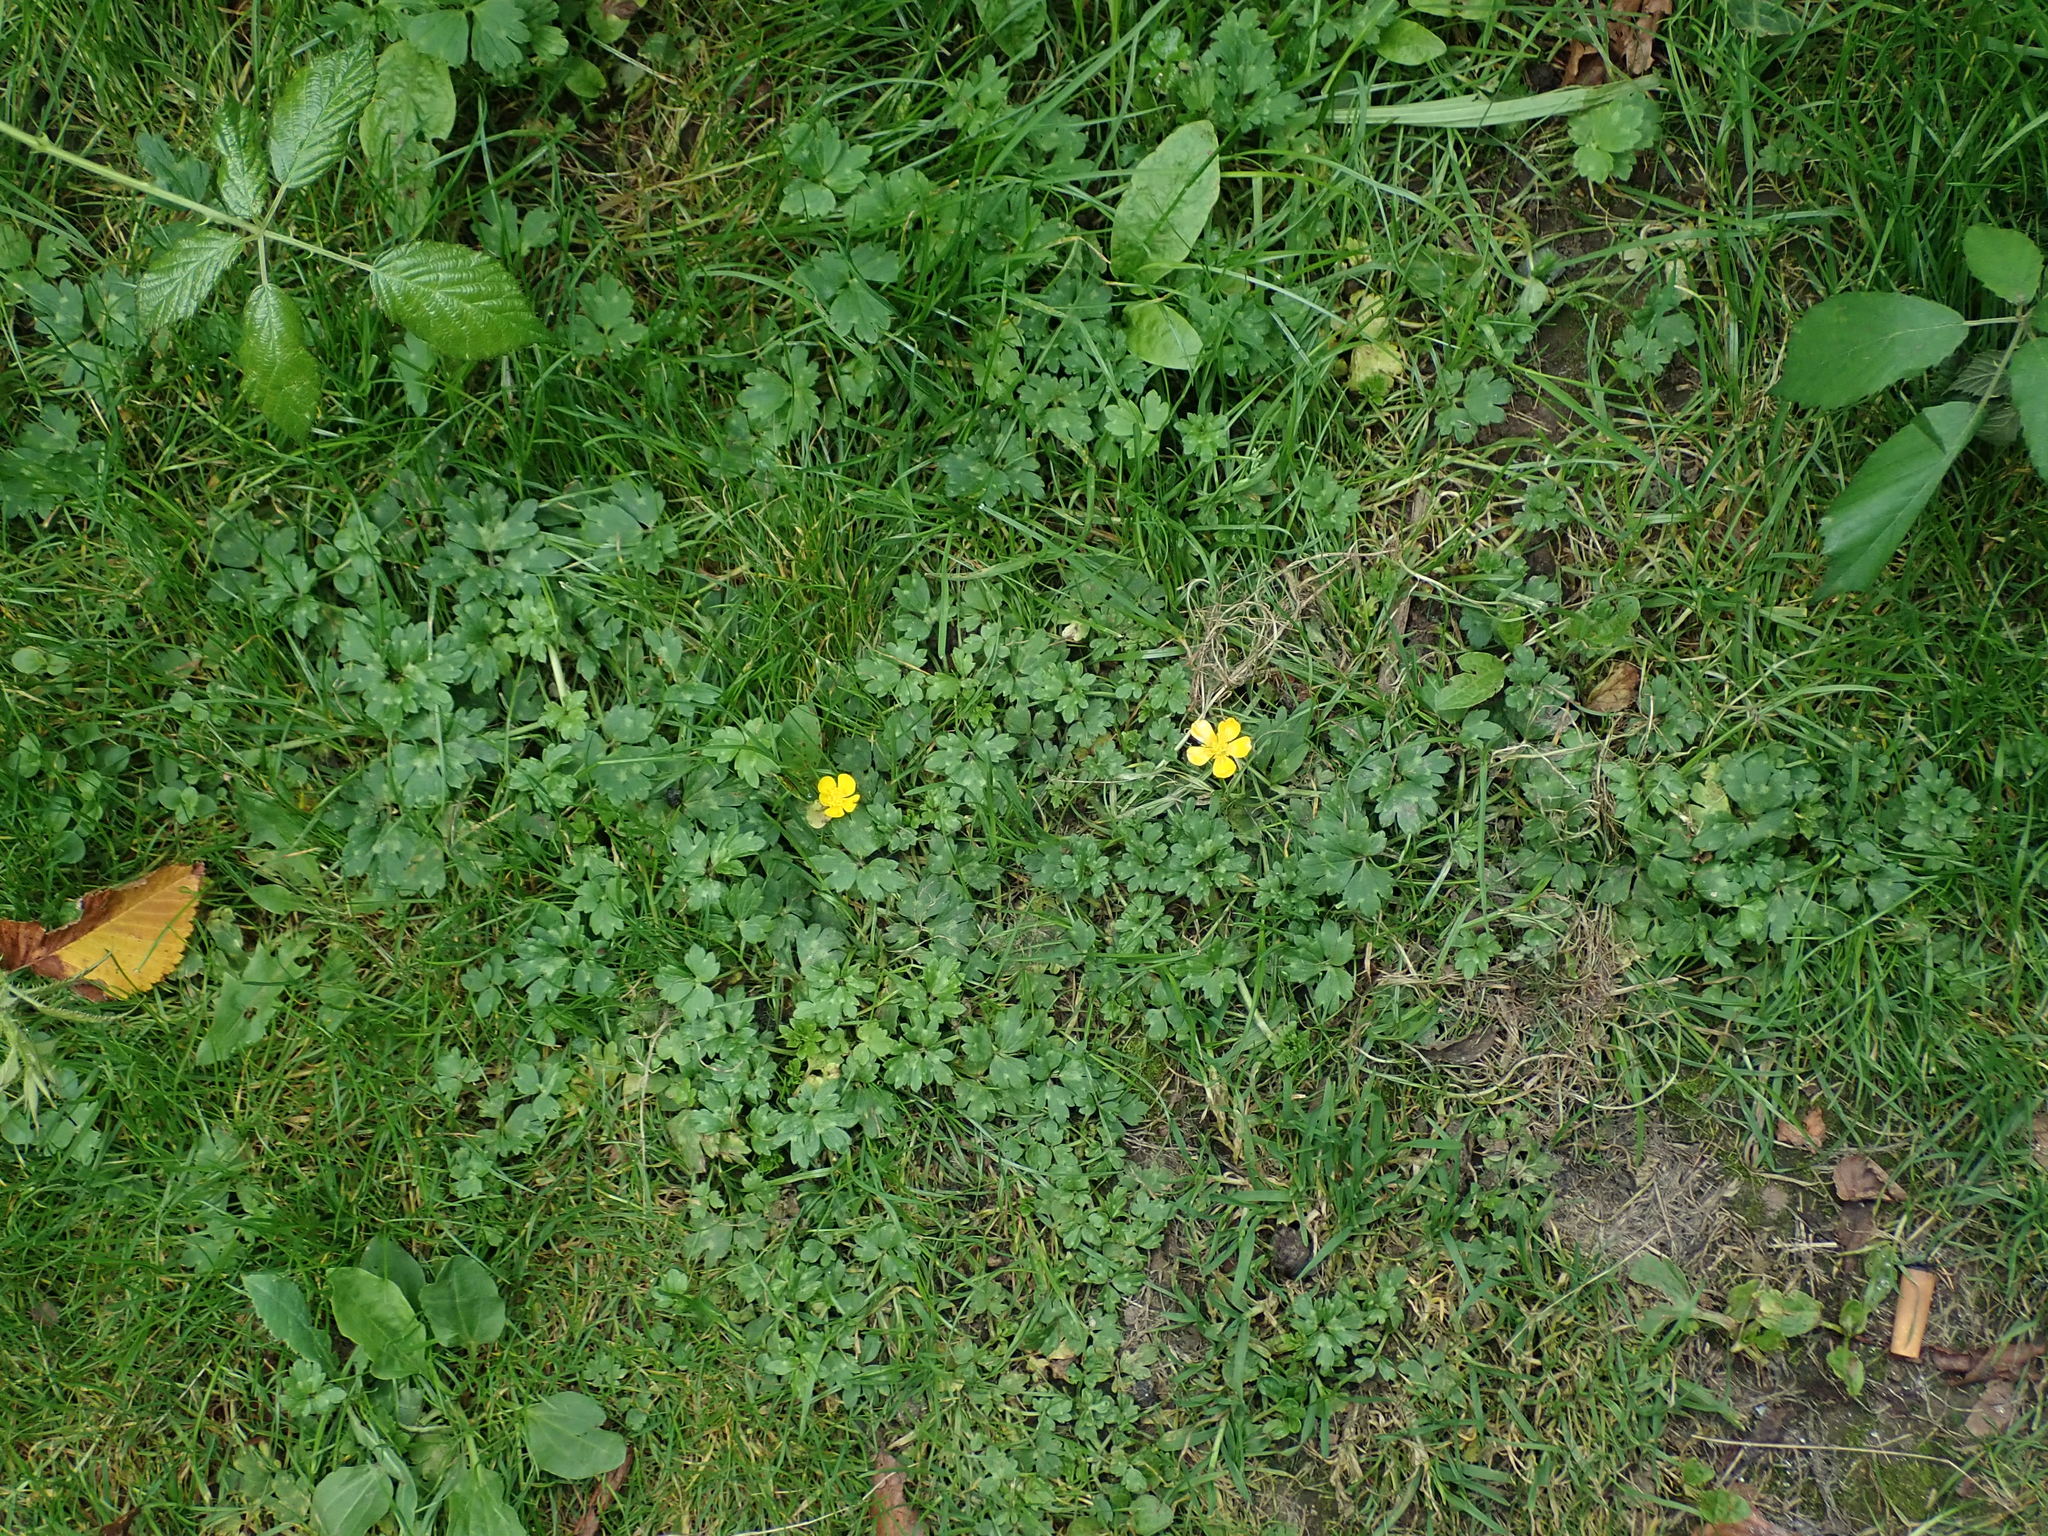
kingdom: Plantae
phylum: Tracheophyta
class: Magnoliopsida
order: Ranunculales
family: Ranunculaceae
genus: Ranunculus
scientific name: Ranunculus repens
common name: Creeping buttercup
